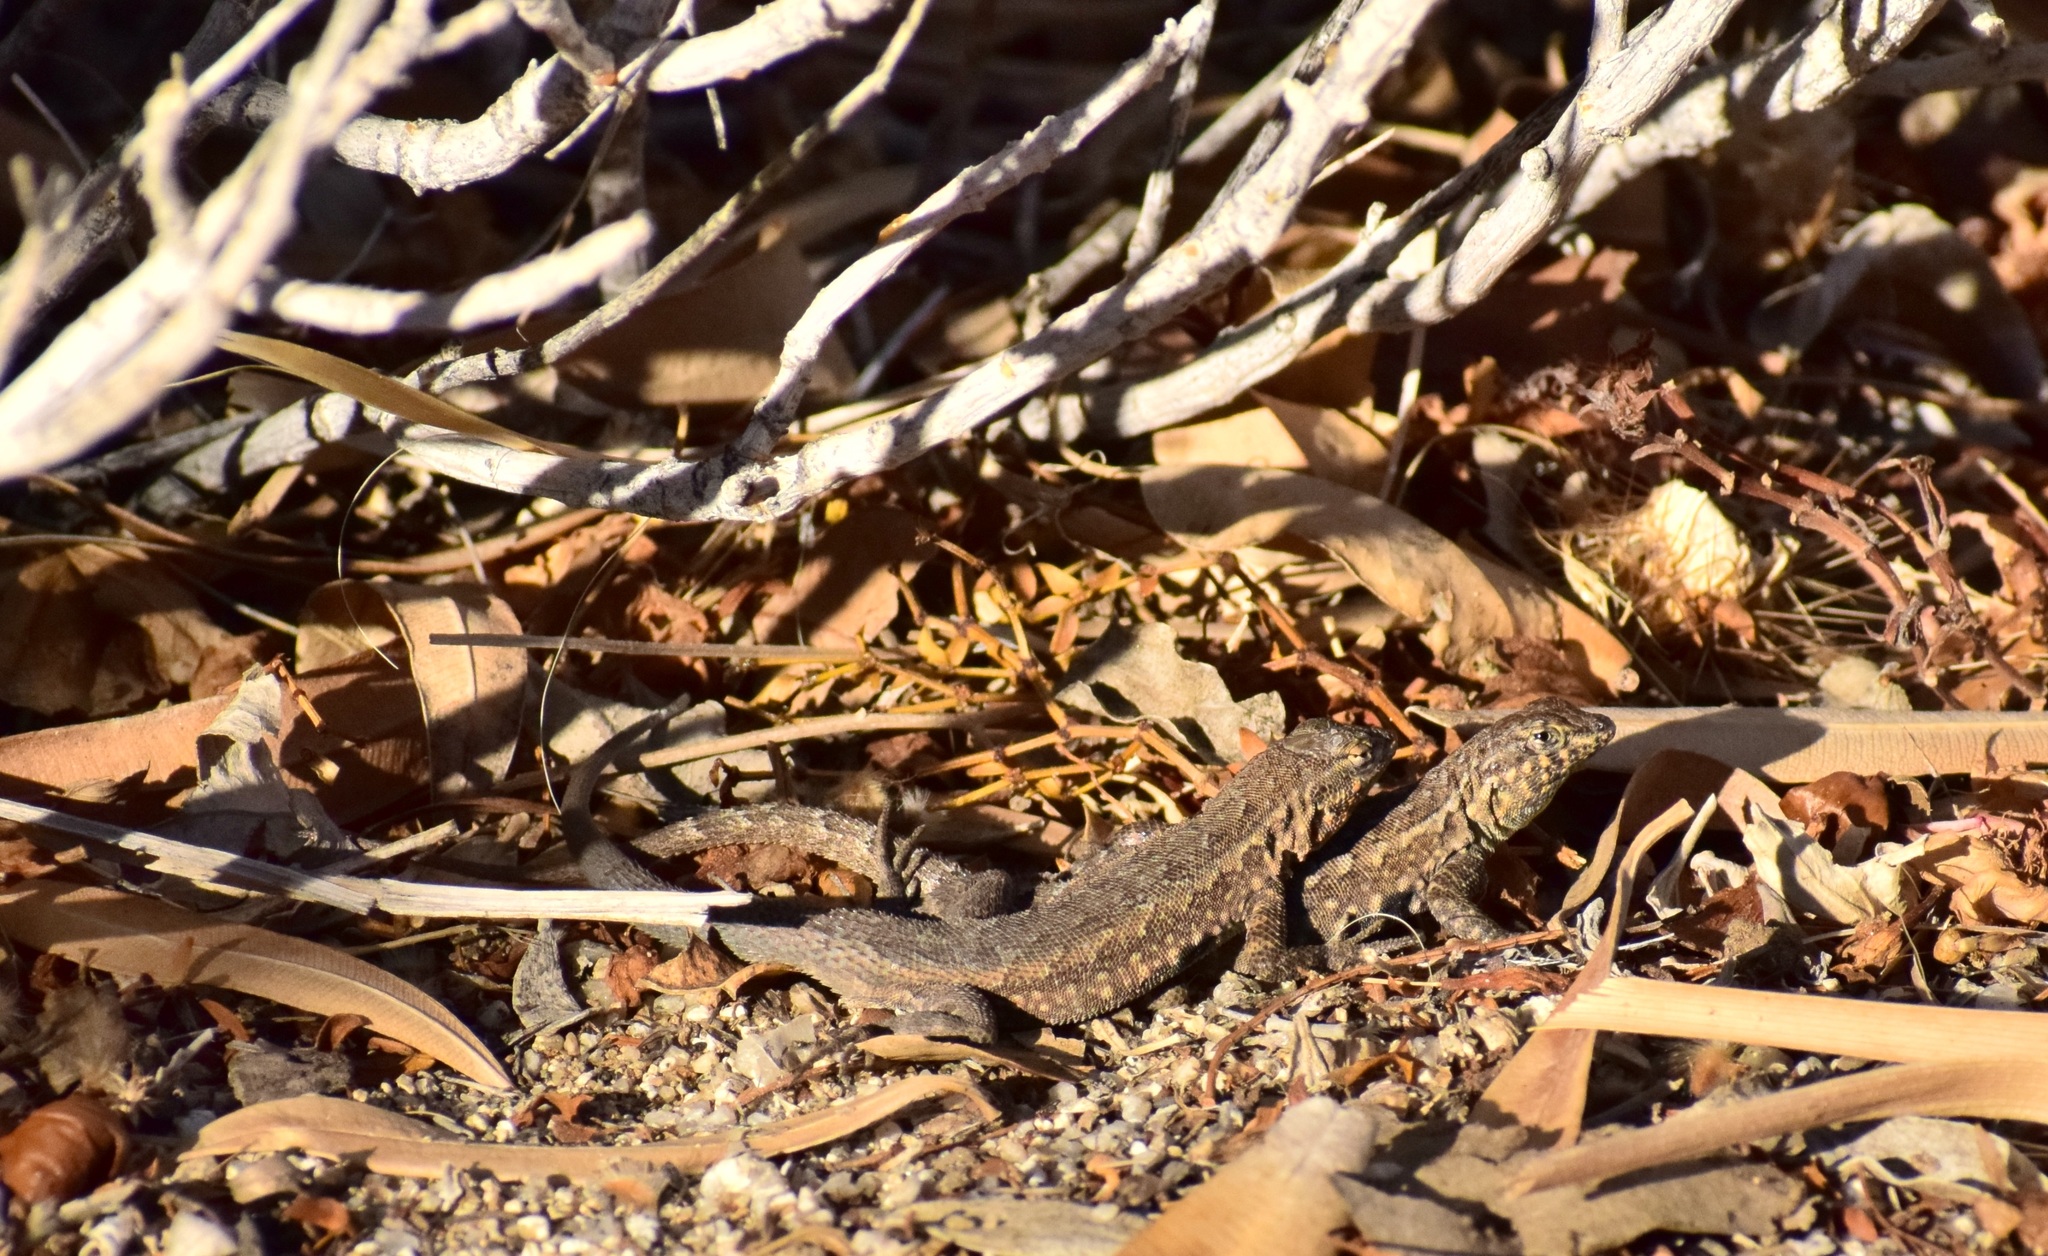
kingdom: Animalia
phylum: Chordata
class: Squamata
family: Phrynosomatidae
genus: Uta
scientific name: Uta stansburiana
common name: Side-blotched lizard
